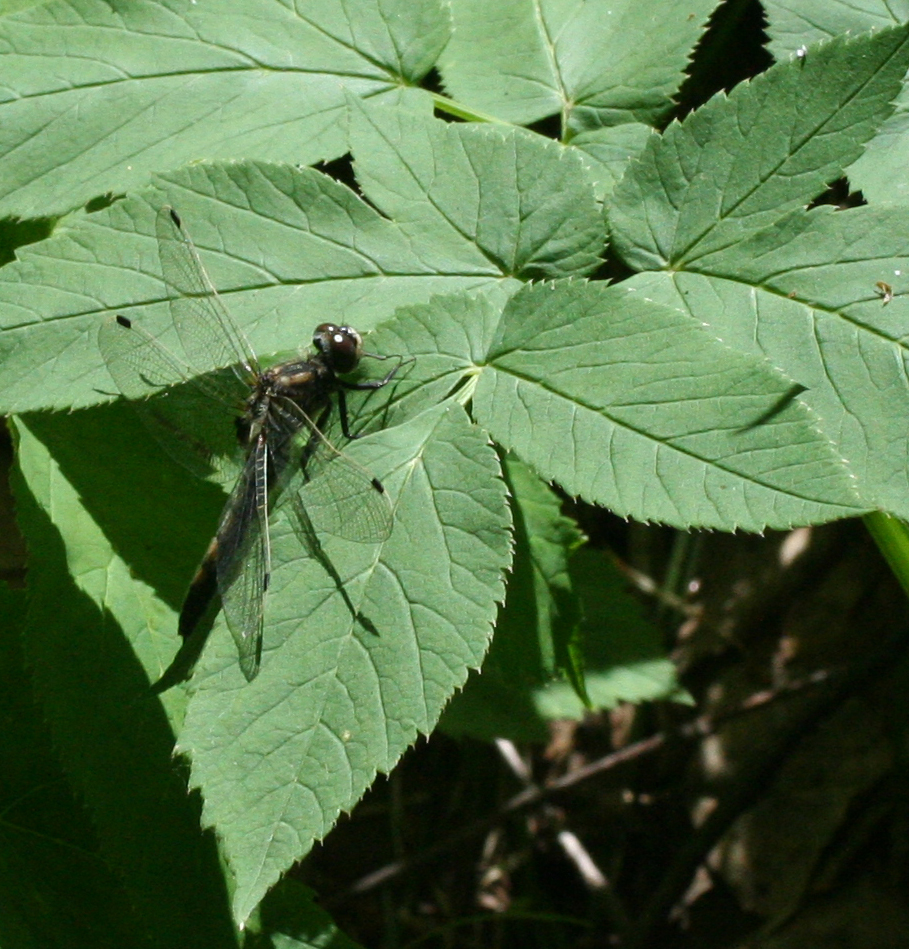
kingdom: Animalia
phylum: Arthropoda
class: Insecta
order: Odonata
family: Libellulidae
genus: Leucorrhinia
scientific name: Leucorrhinia rubicunda
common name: Ruby whiteface
